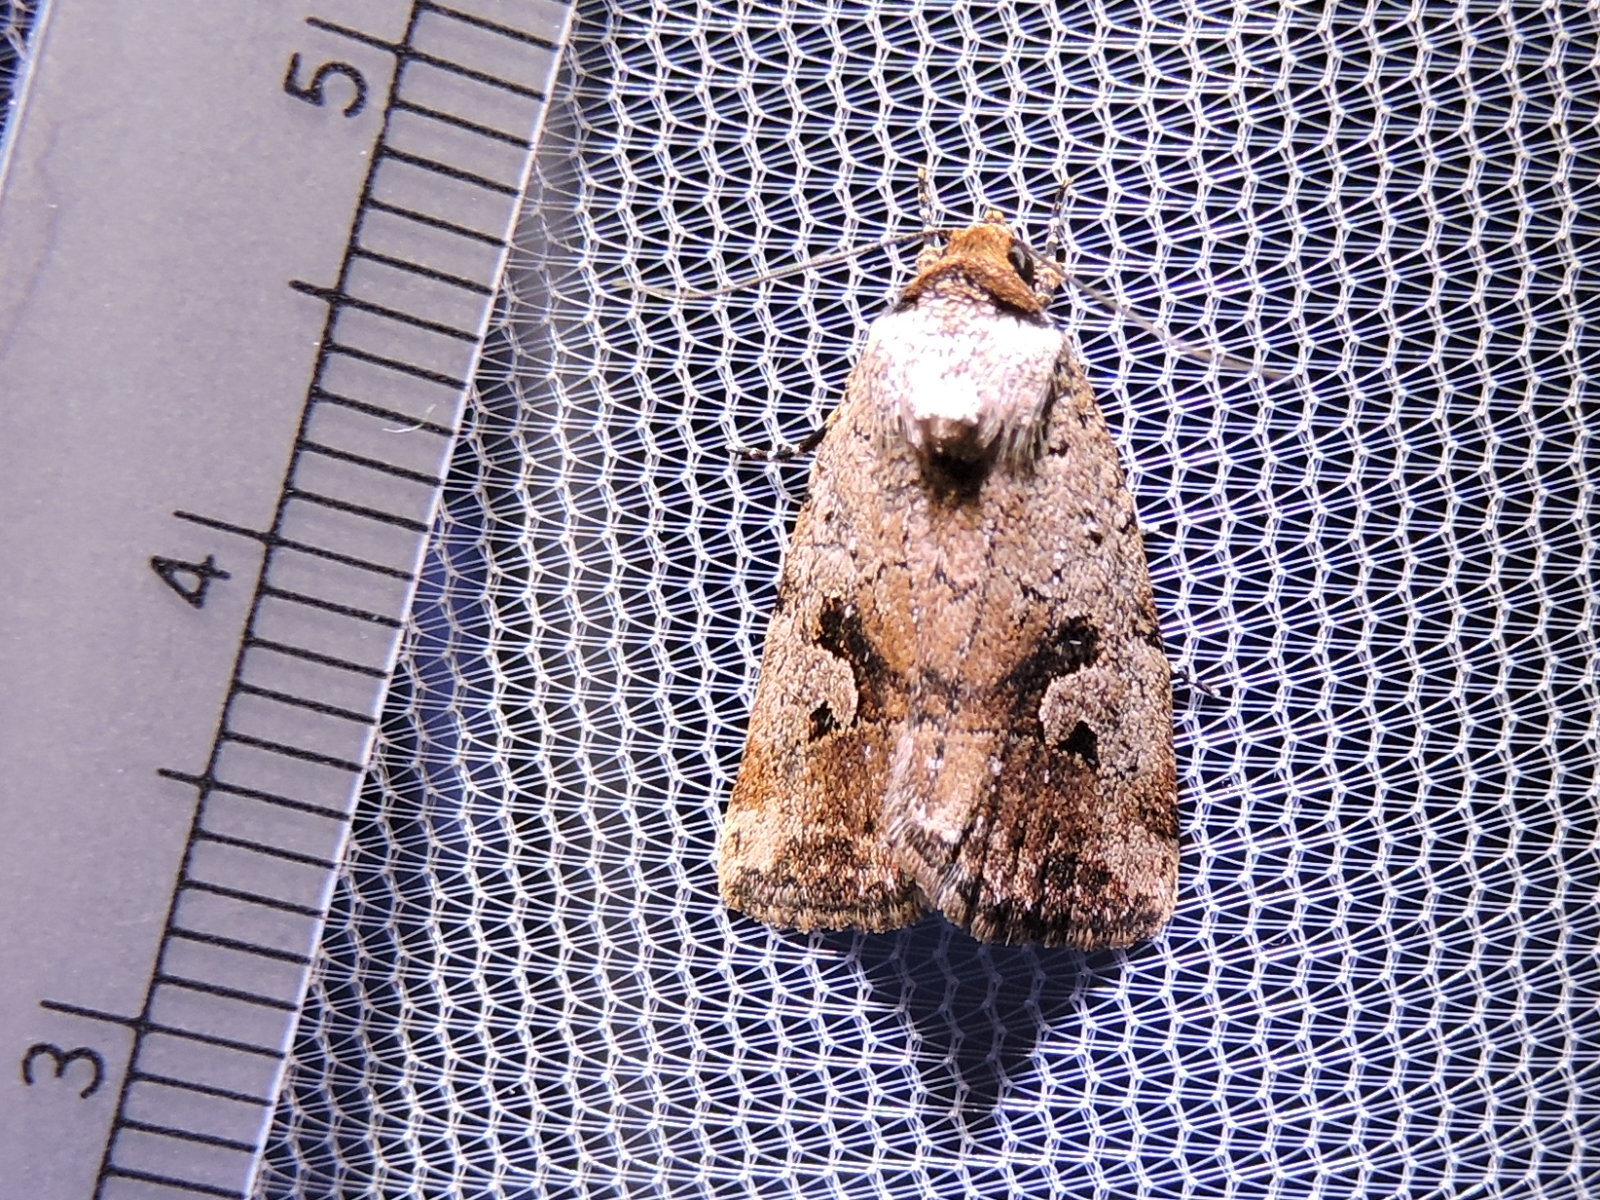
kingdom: Animalia
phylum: Arthropoda
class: Insecta
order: Lepidoptera
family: Noctuidae
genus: Elaphria
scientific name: Elaphria festivoides
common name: Festive midget
